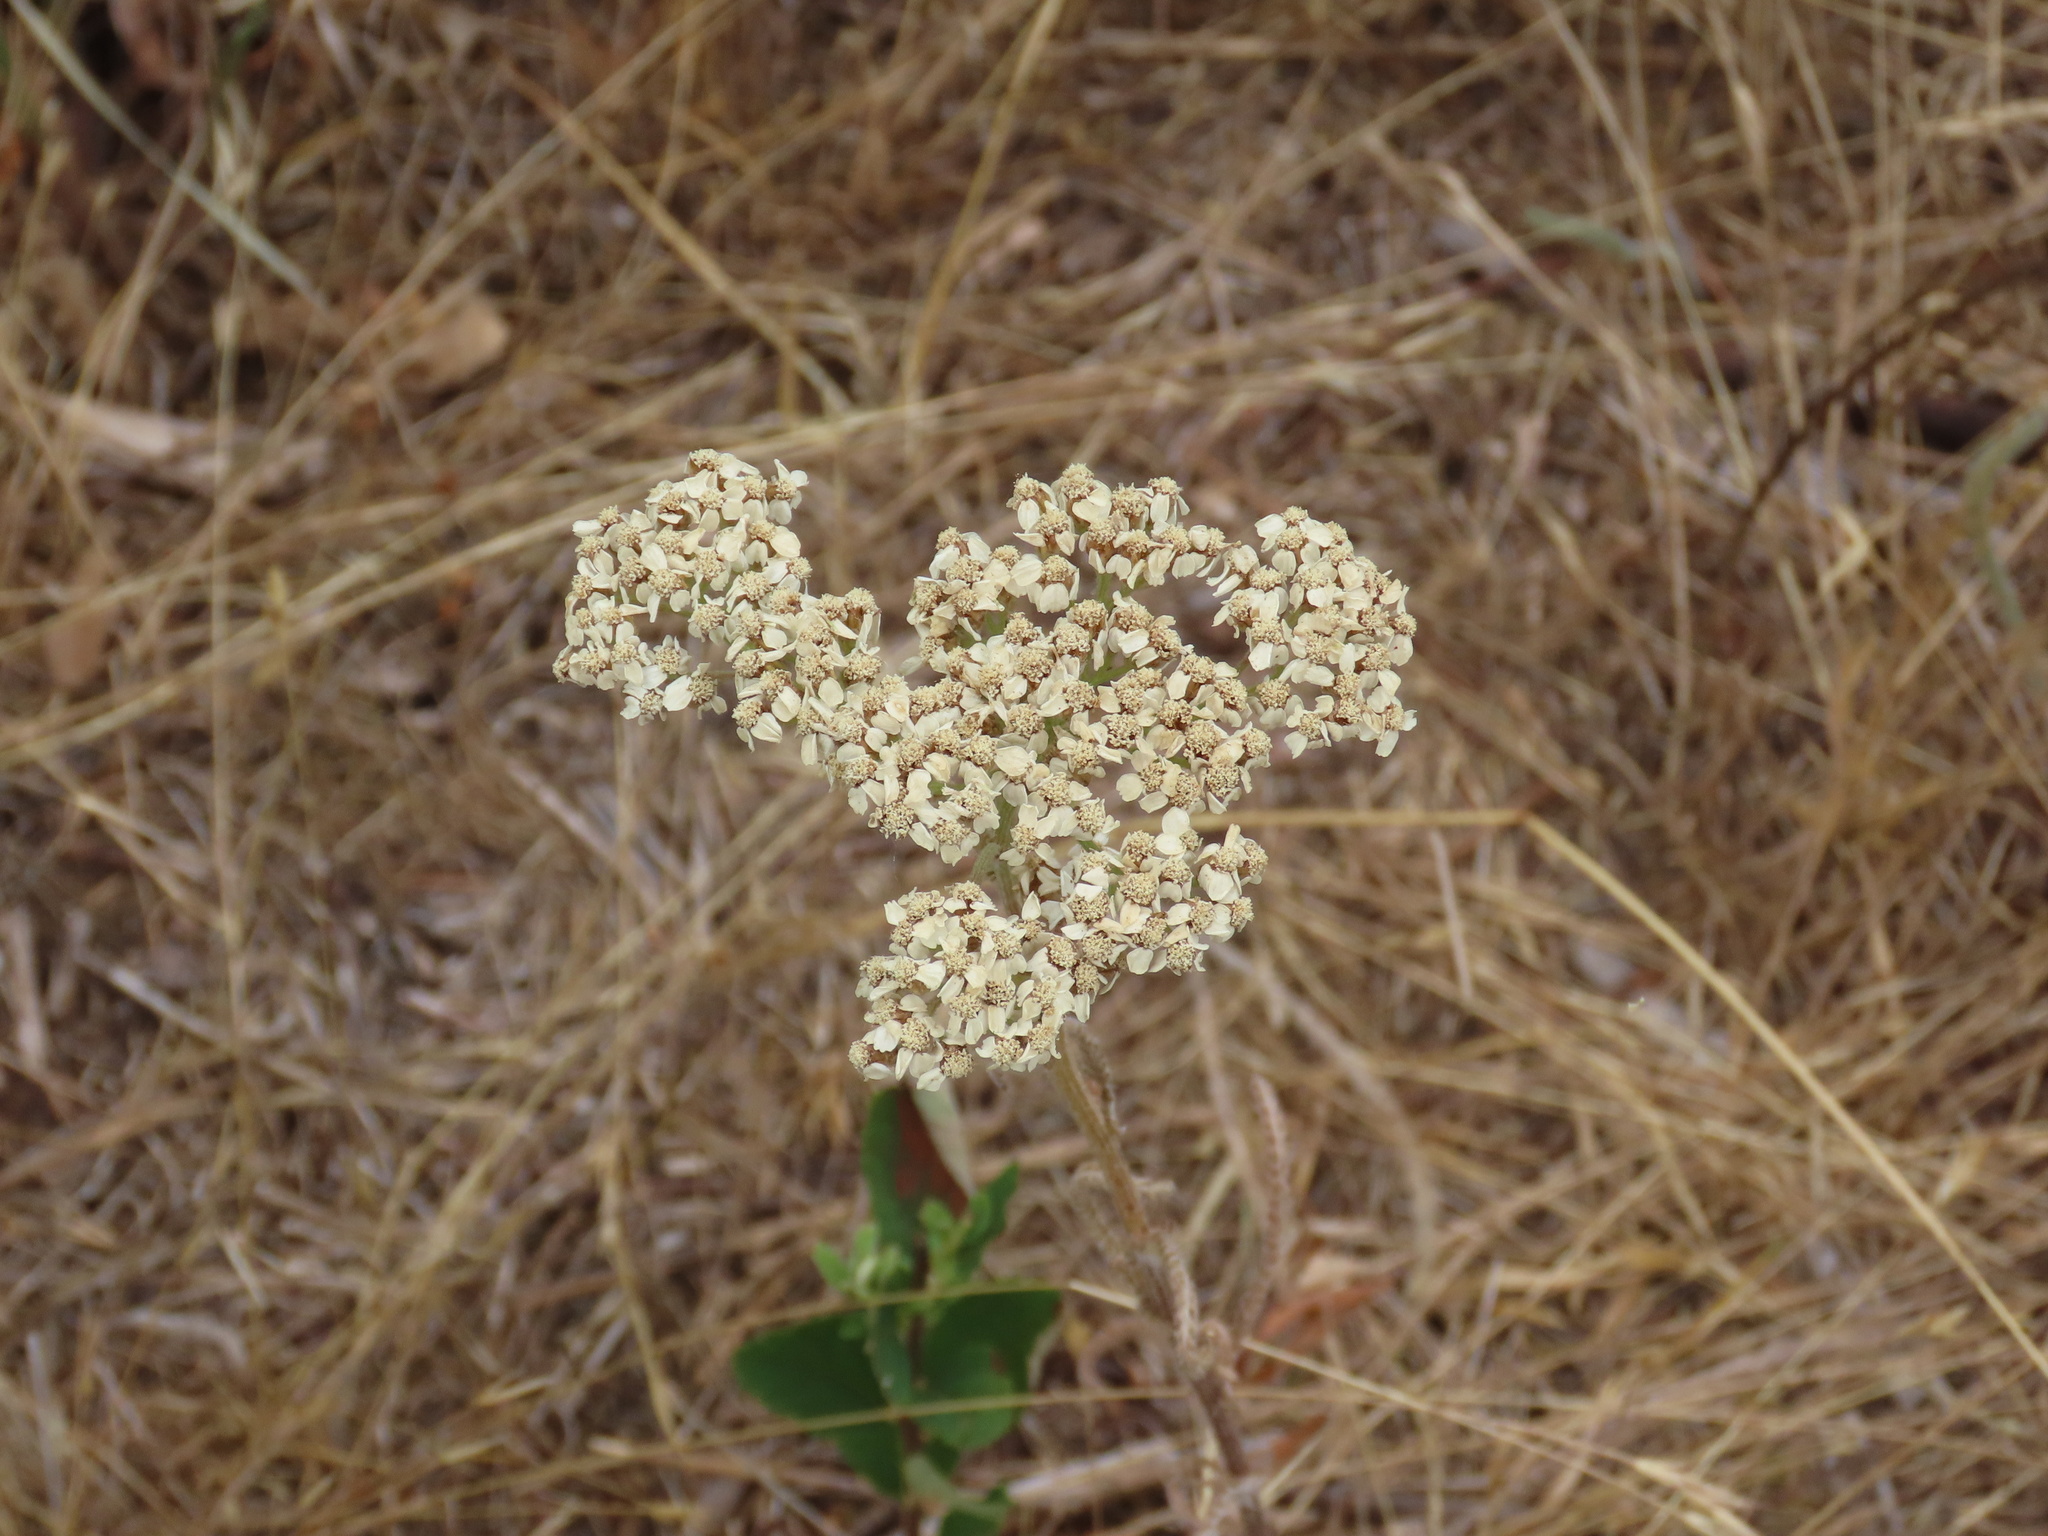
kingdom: Plantae
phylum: Tracheophyta
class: Magnoliopsida
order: Asterales
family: Asteraceae
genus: Achillea
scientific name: Achillea millefolium
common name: Yarrow
